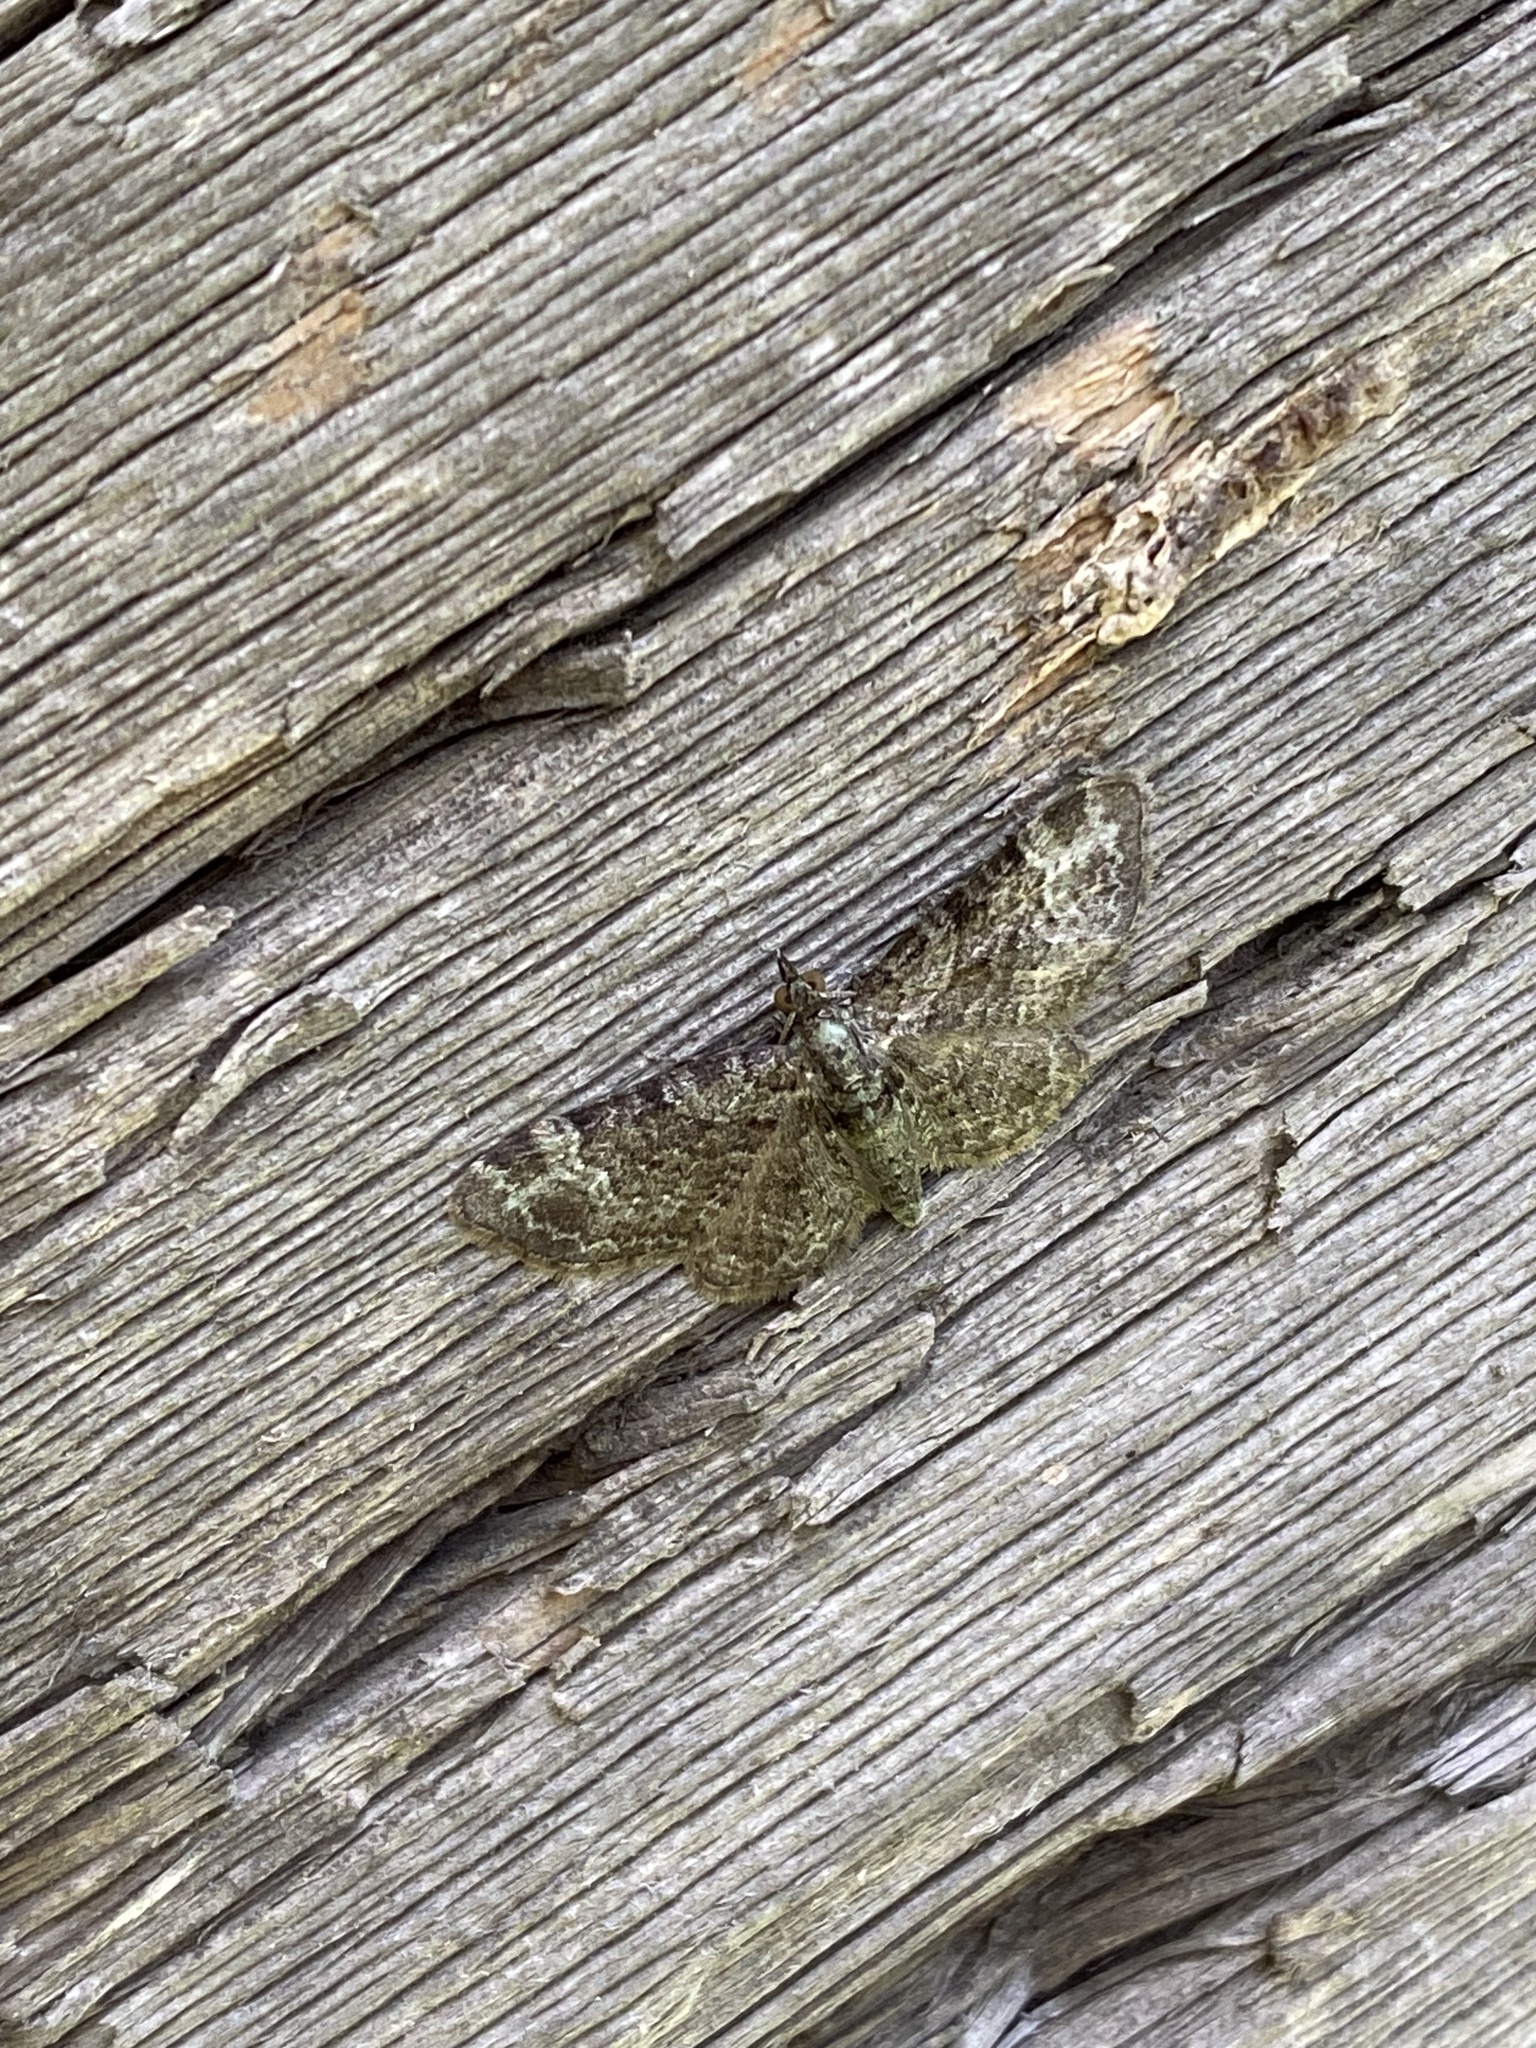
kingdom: Animalia
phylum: Arthropoda
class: Insecta
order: Lepidoptera
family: Geometridae
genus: Pasiphila
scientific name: Pasiphila rectangulata
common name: Green pug
